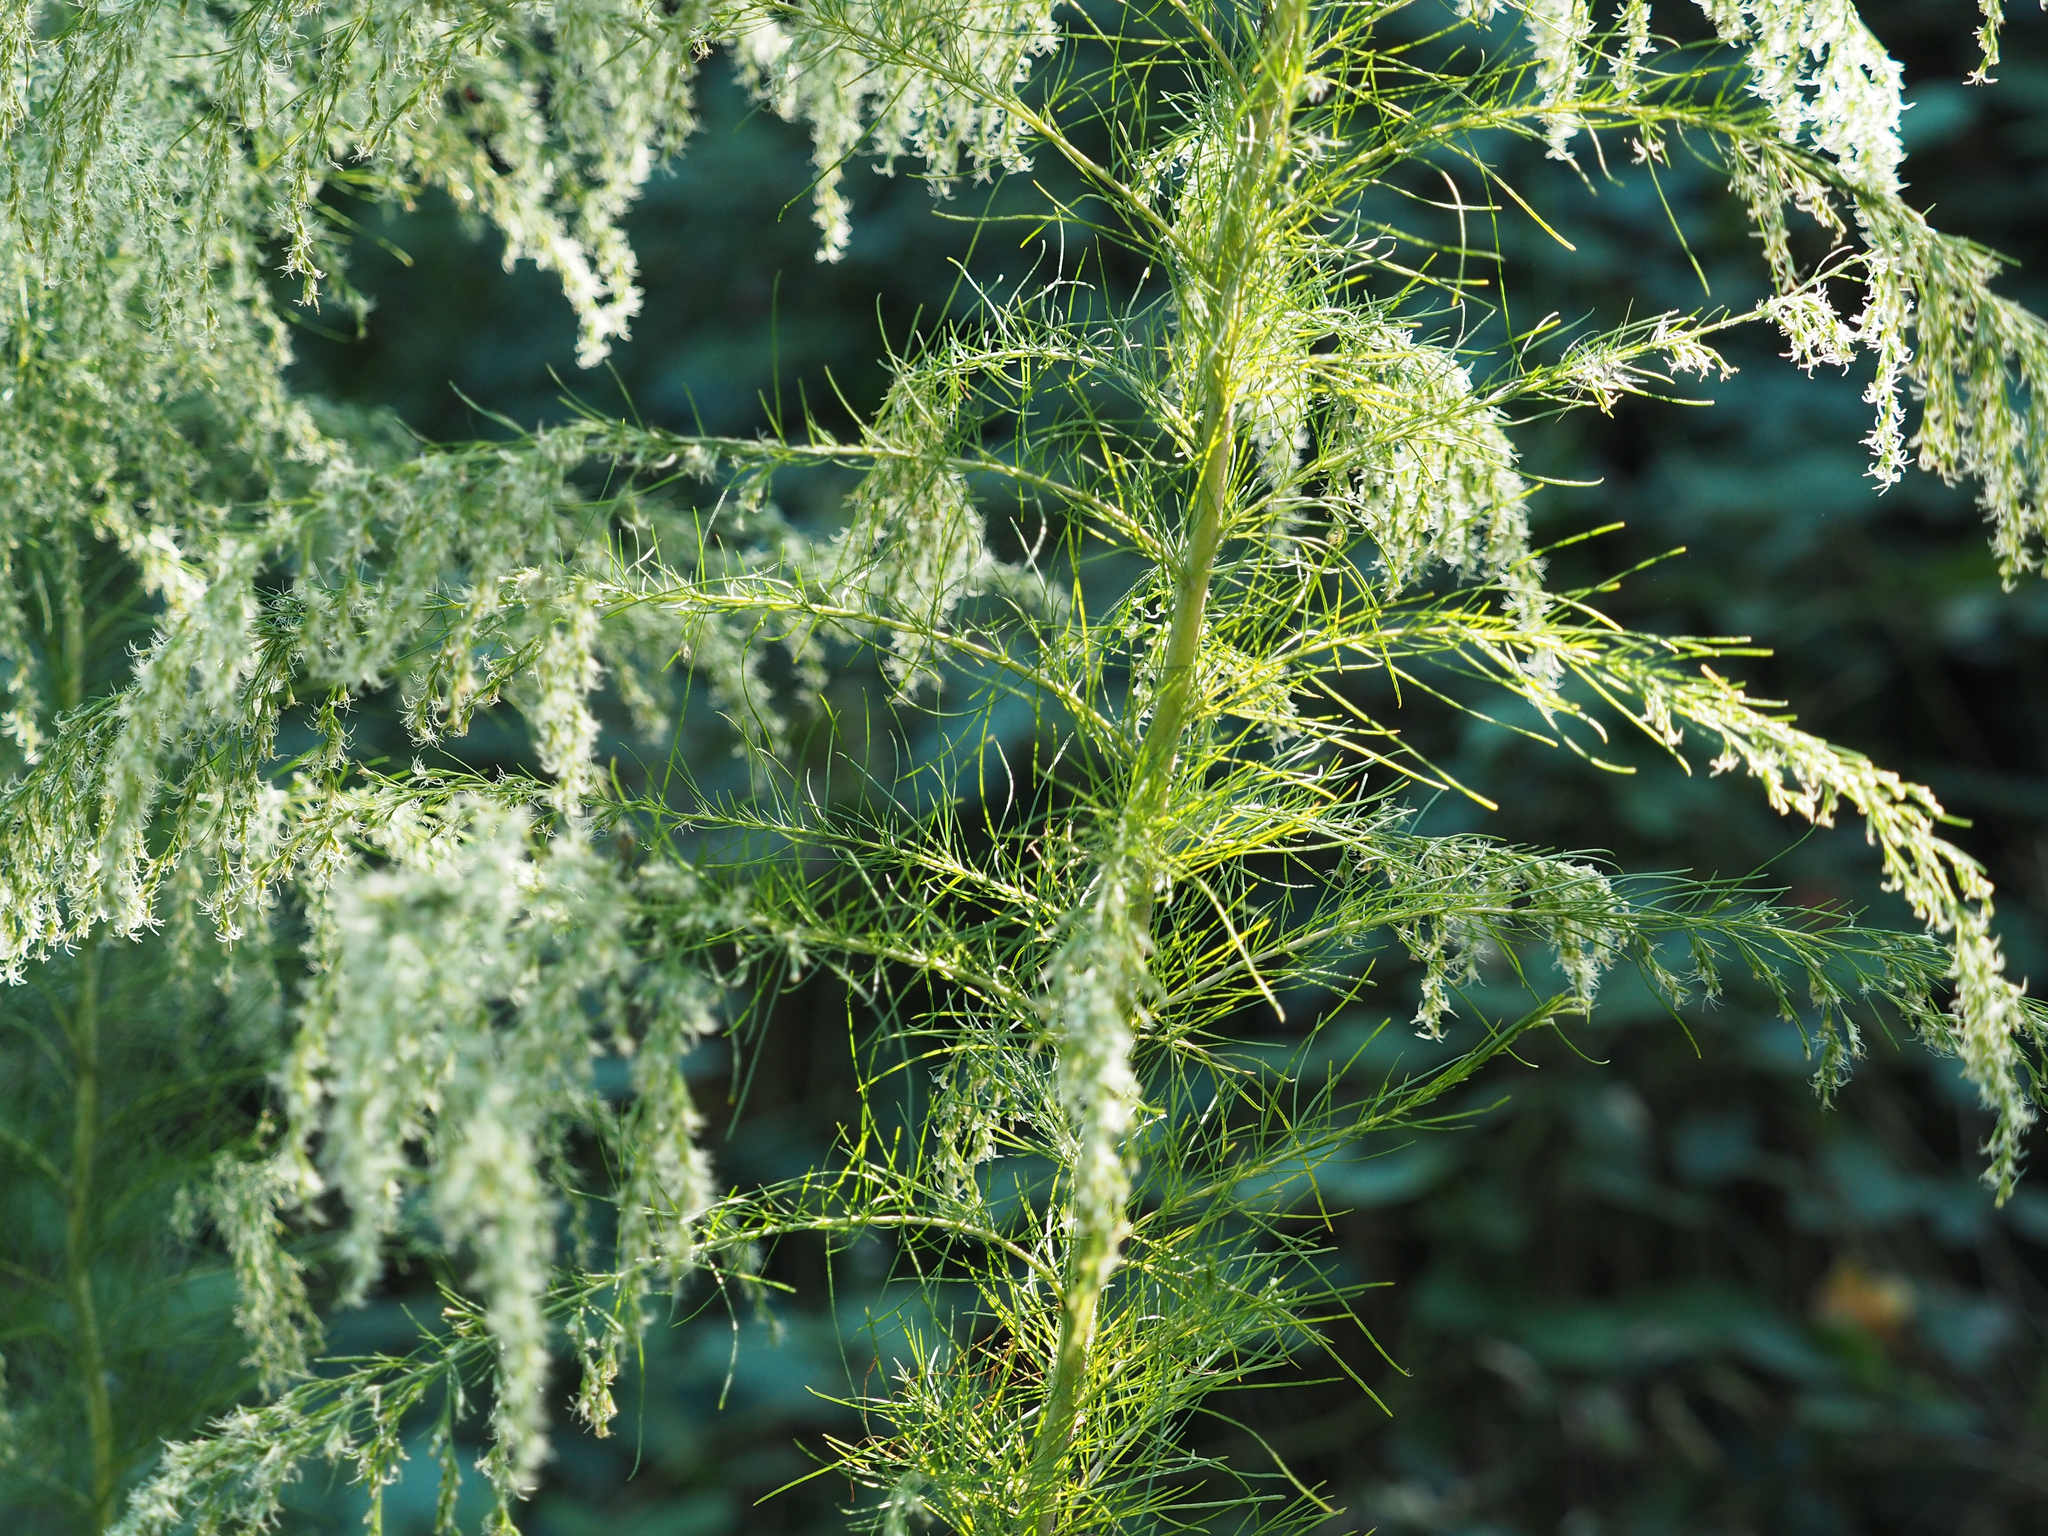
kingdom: Plantae
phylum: Tracheophyta
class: Magnoliopsida
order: Asterales
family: Asteraceae
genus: Eupatorium
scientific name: Eupatorium capillifolium
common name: Dog-fennel
